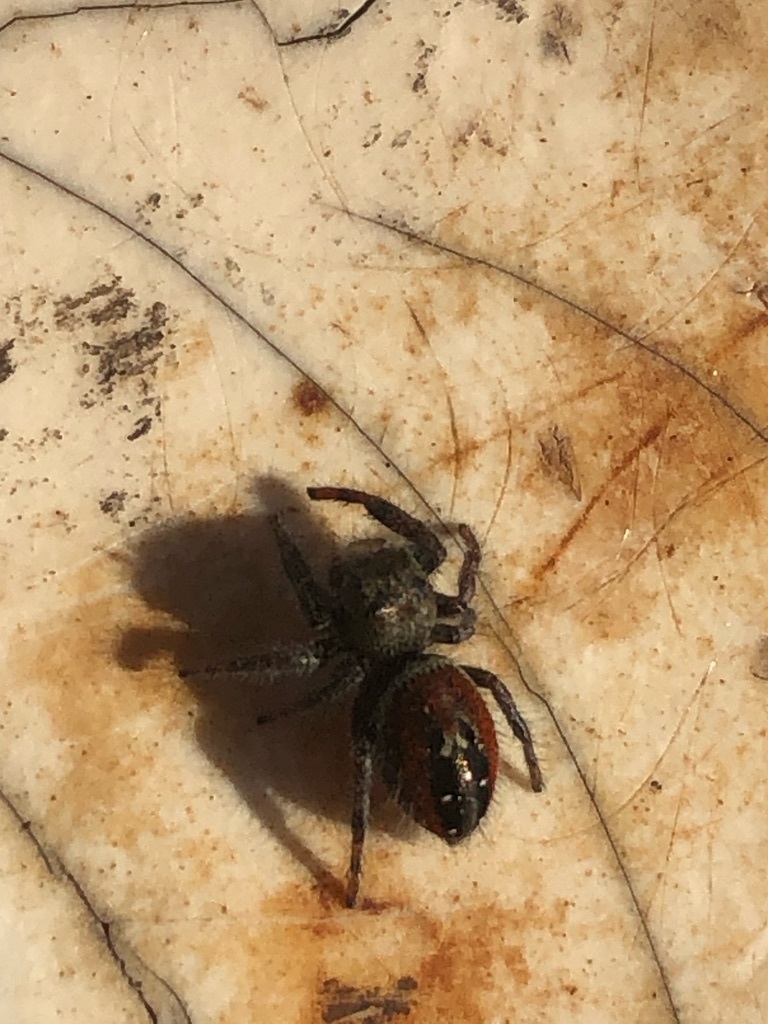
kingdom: Animalia
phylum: Arthropoda
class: Arachnida
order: Araneae
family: Salticidae
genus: Phidippus
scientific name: Phidippus johnsoni
